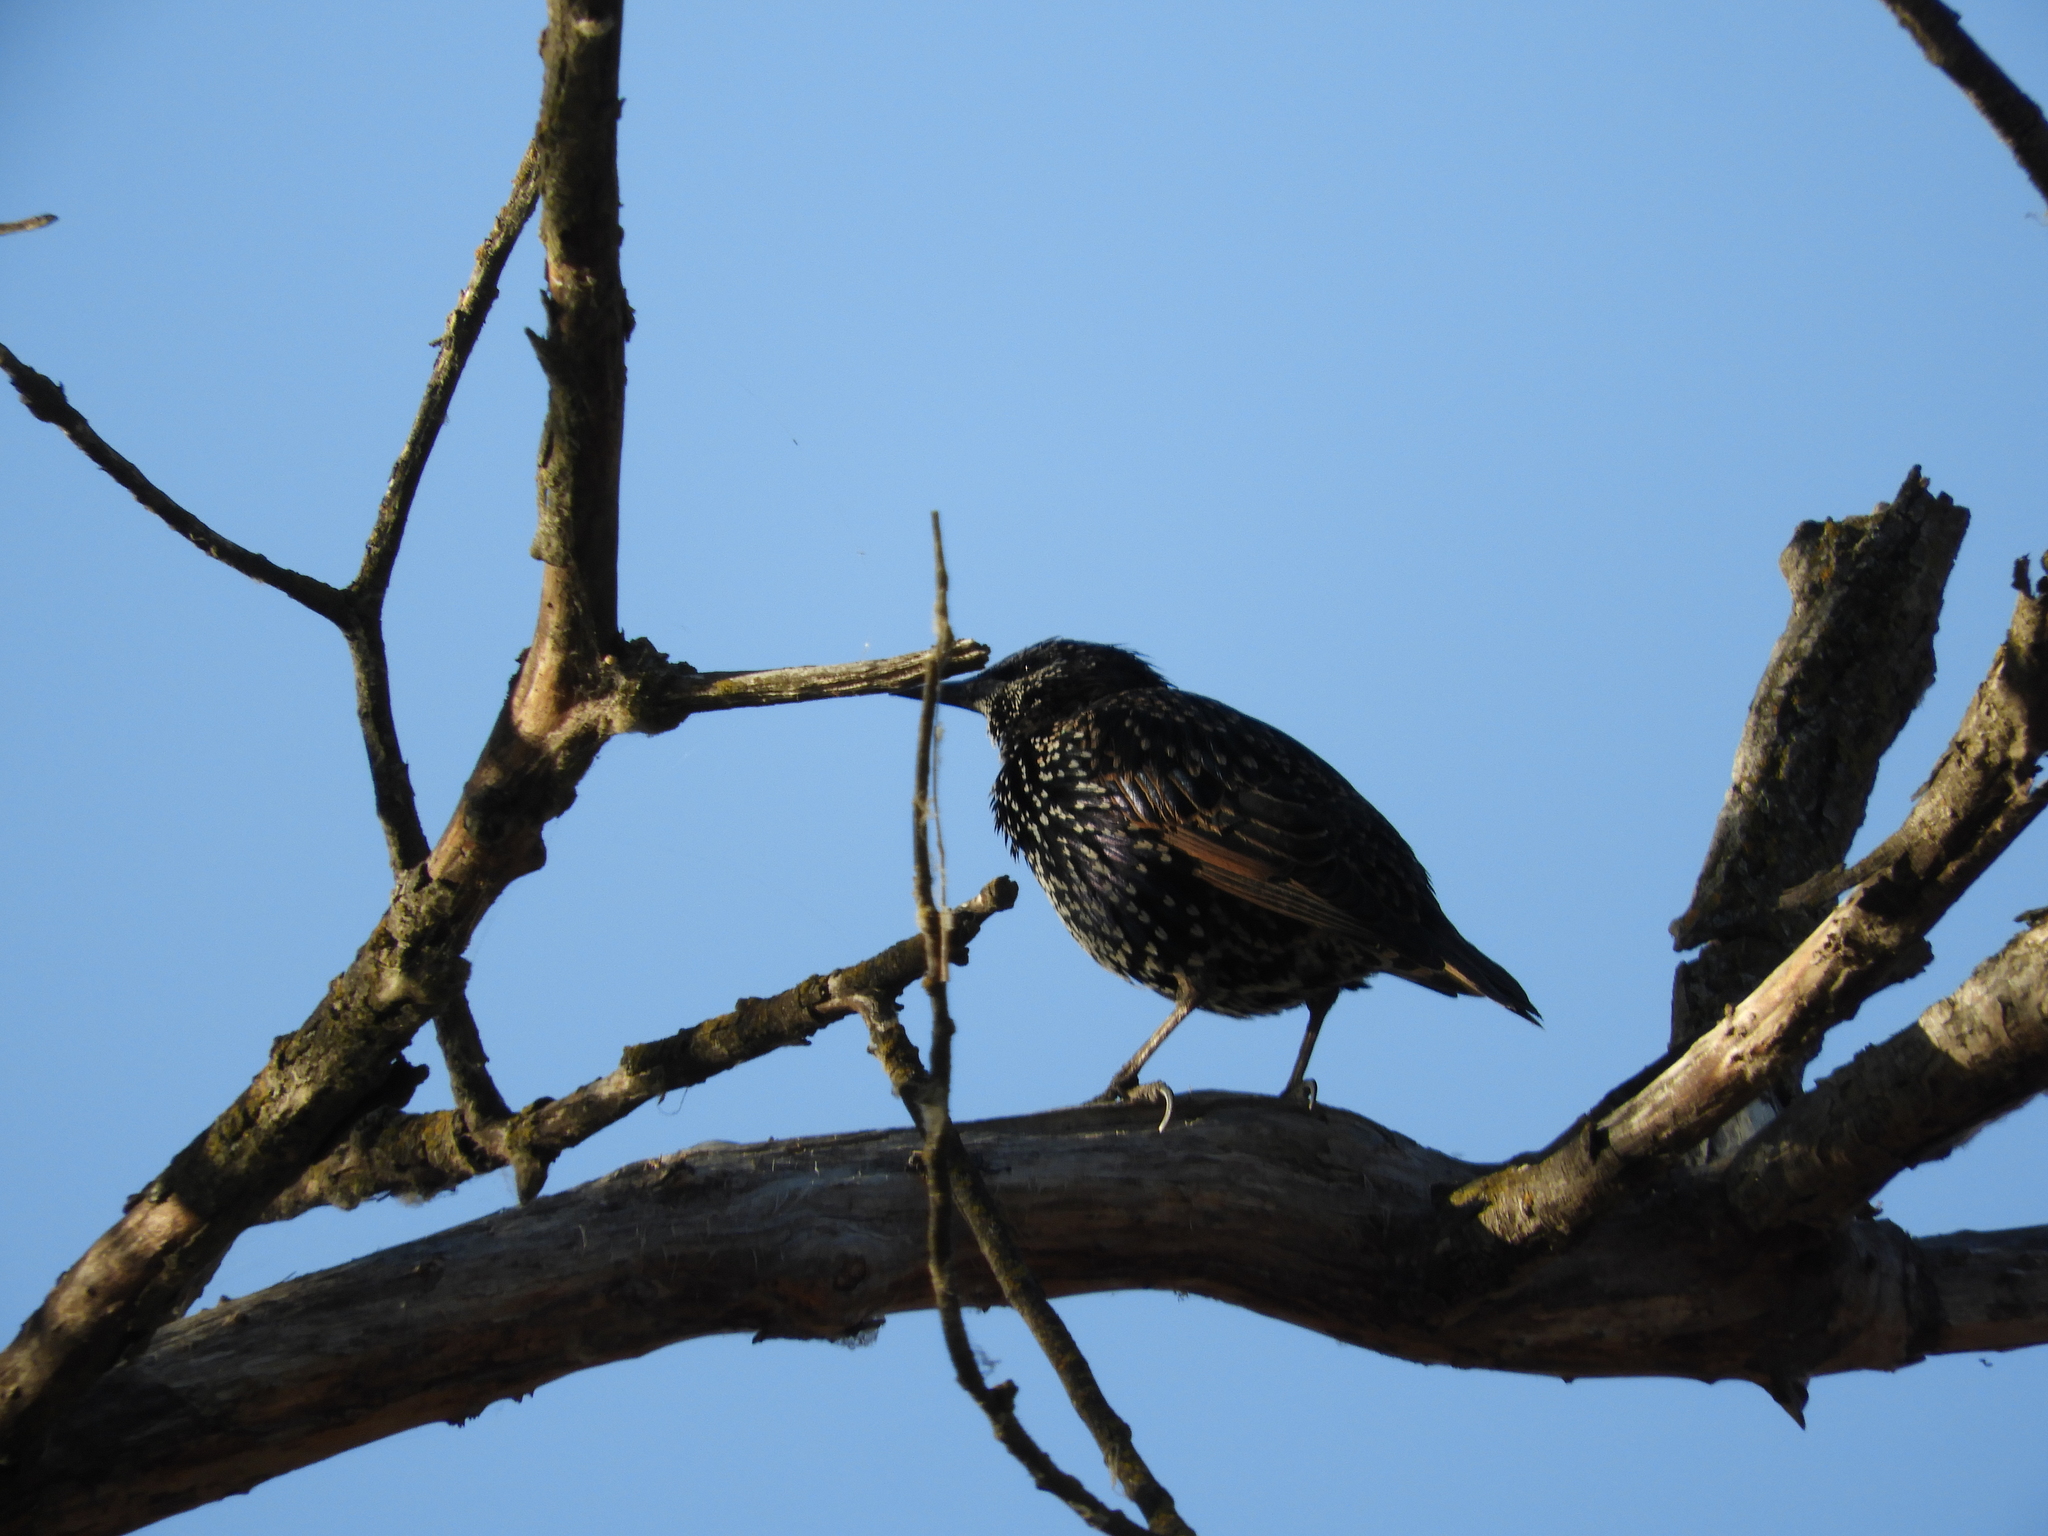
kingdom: Animalia
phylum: Chordata
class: Aves
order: Passeriformes
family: Sturnidae
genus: Sturnus
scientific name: Sturnus vulgaris
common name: Common starling
